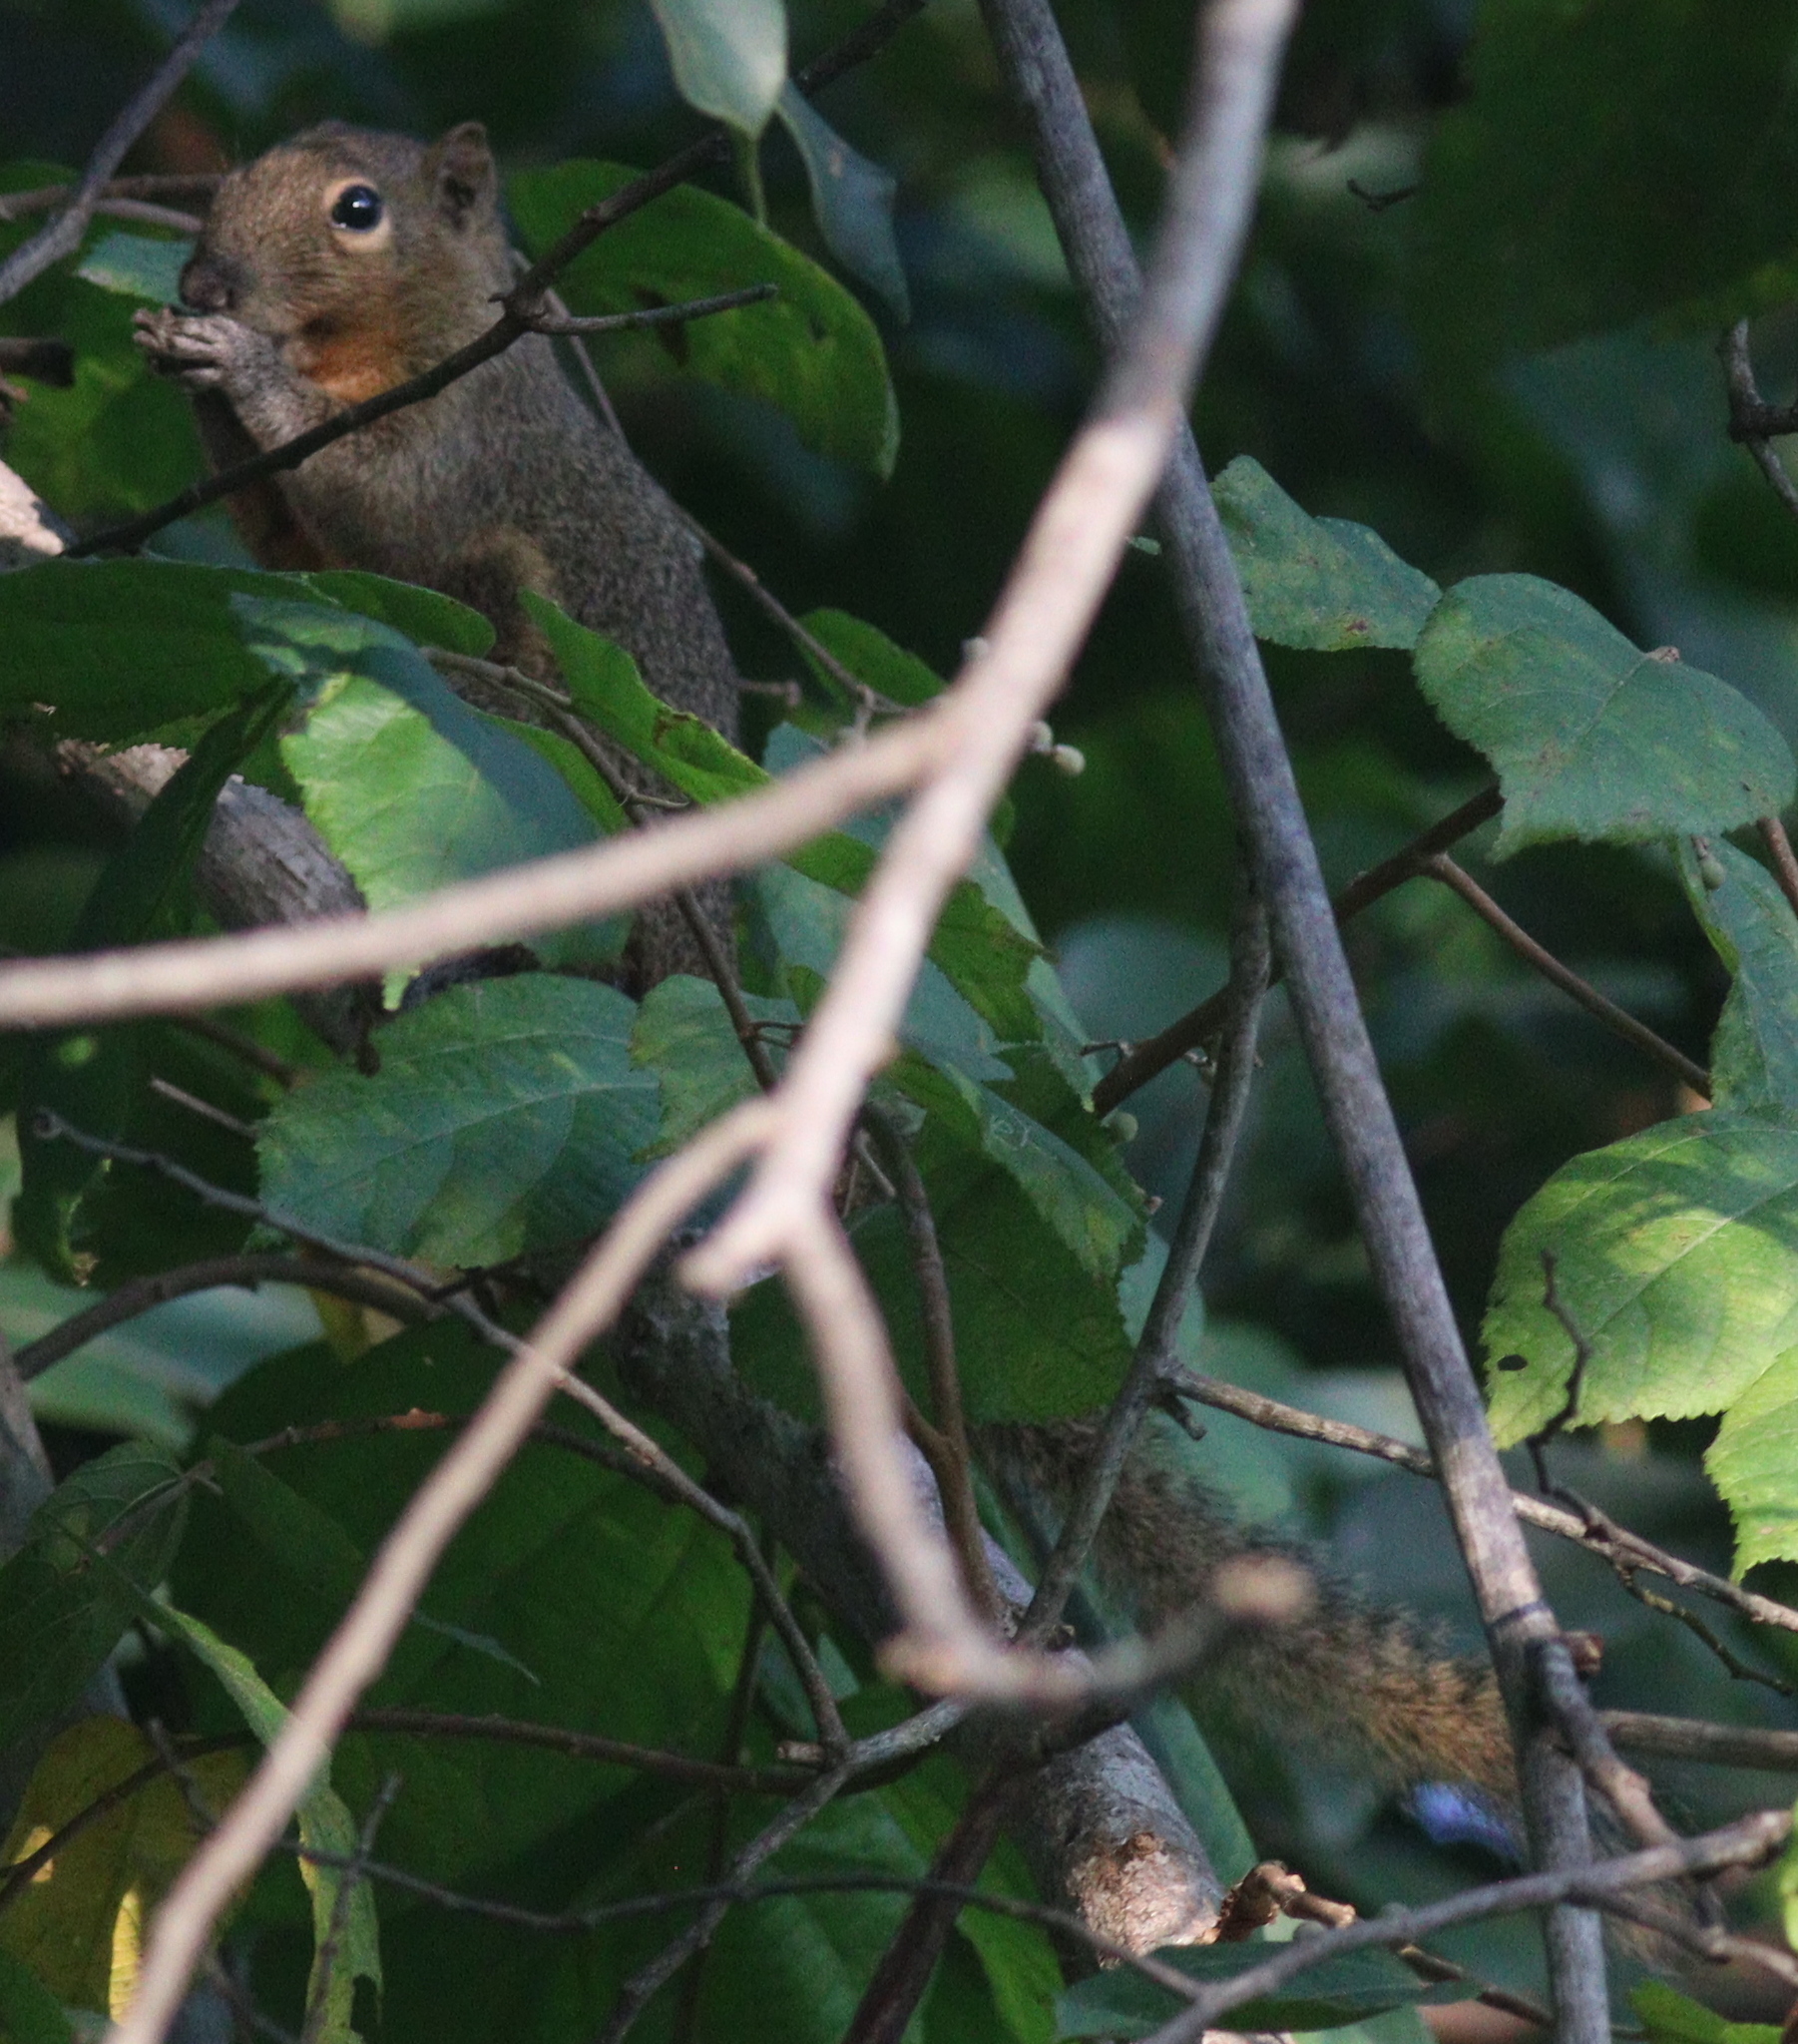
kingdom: Animalia
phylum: Chordata
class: Mammalia
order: Rodentia
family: Sciuridae
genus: Callosciurus
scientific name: Callosciurus notatus
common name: Plantain squirrel
